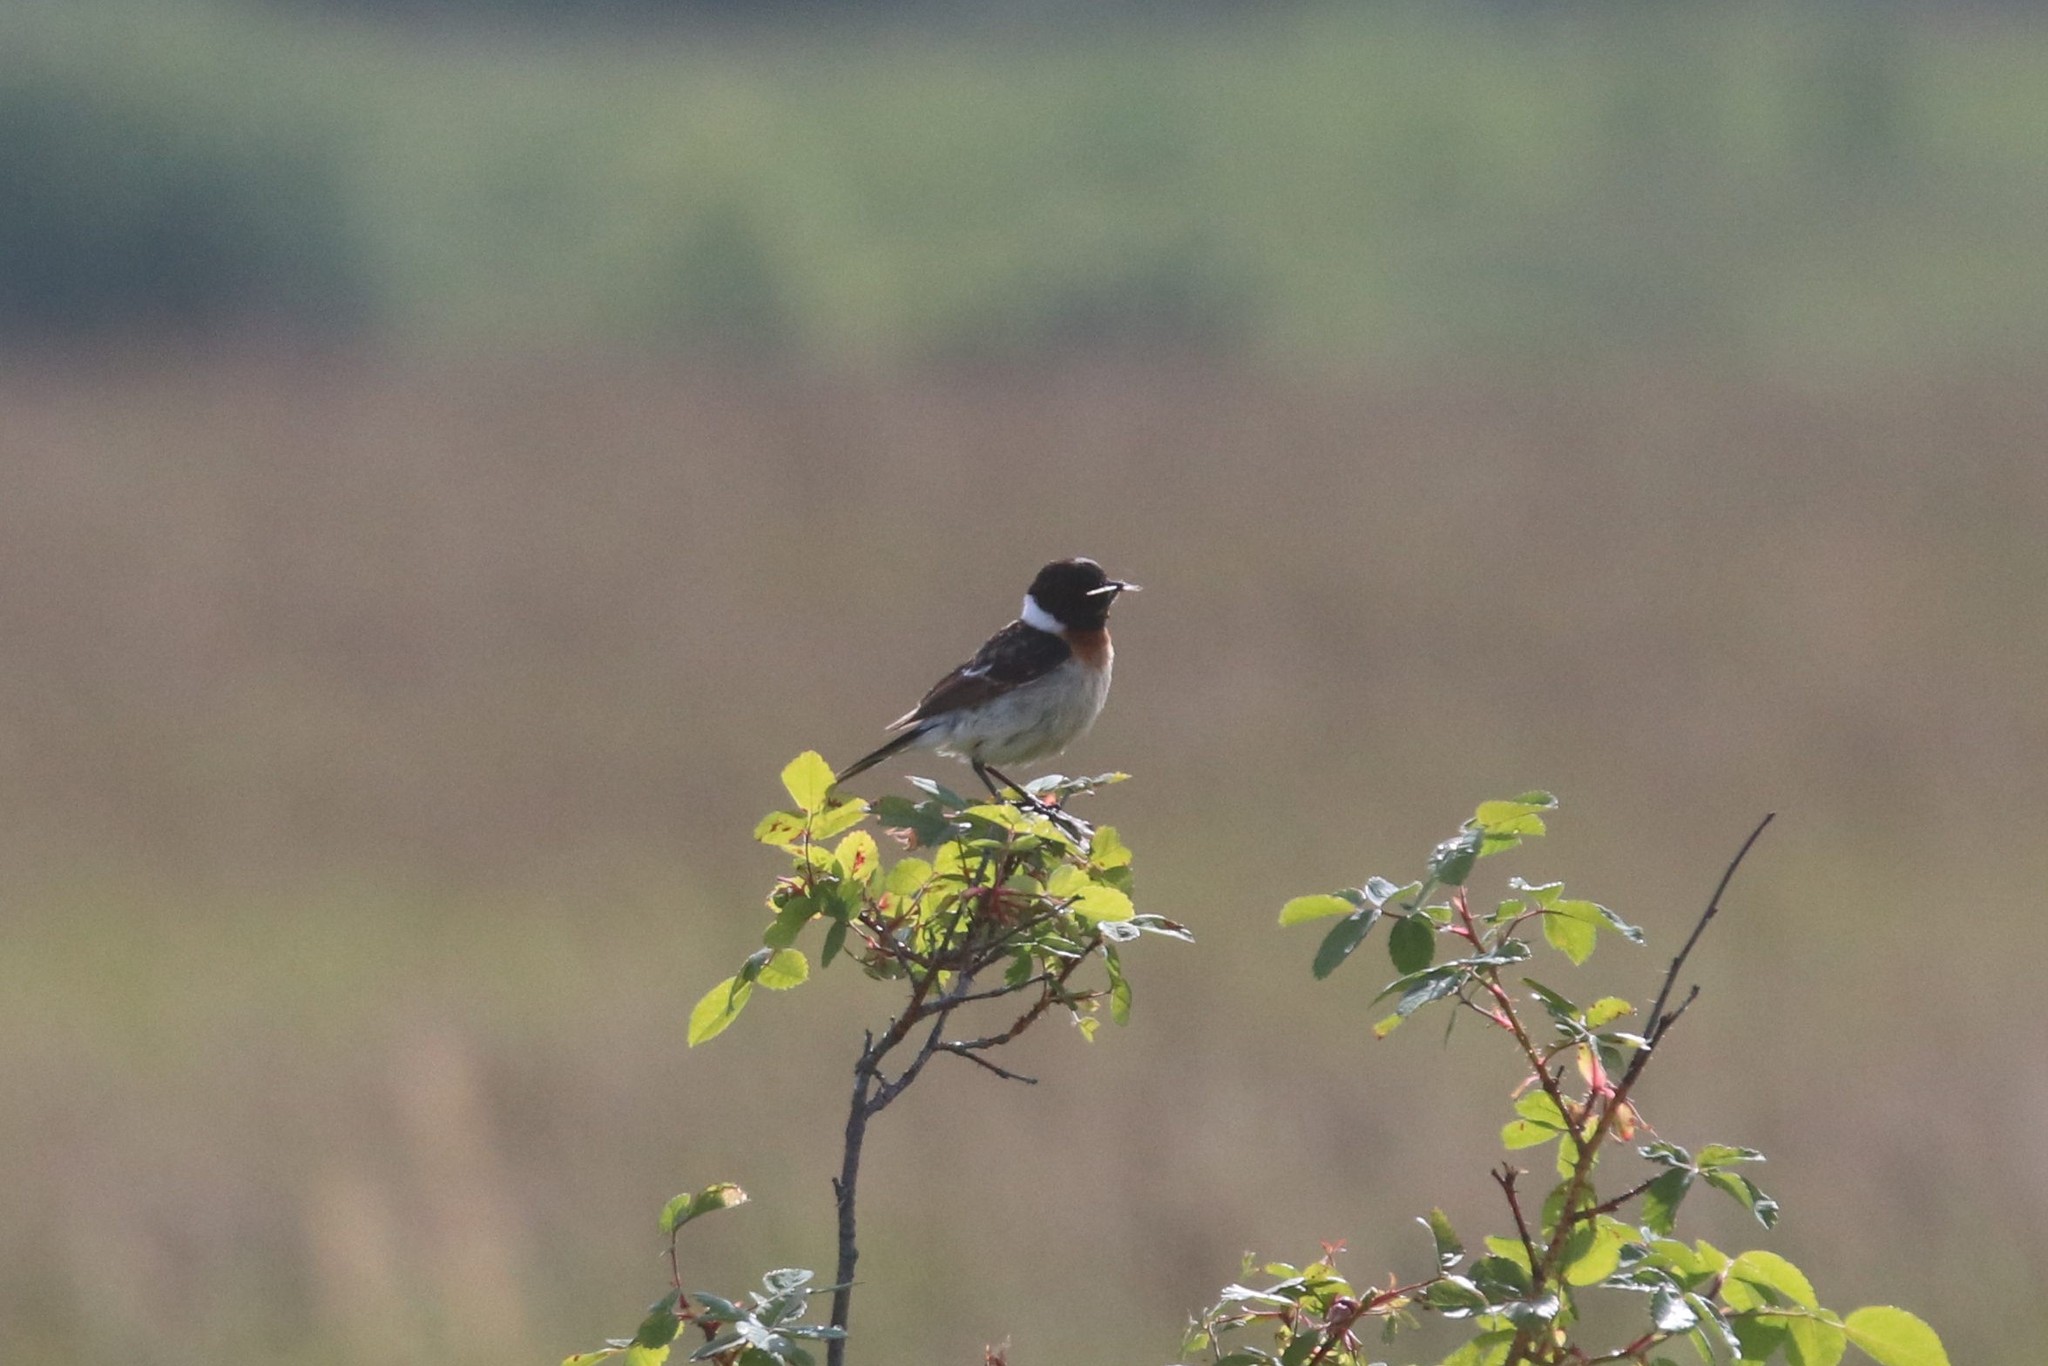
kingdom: Animalia
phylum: Chordata
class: Aves
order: Passeriformes
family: Muscicapidae
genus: Saxicola
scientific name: Saxicola maurus
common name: Siberian stonechat
